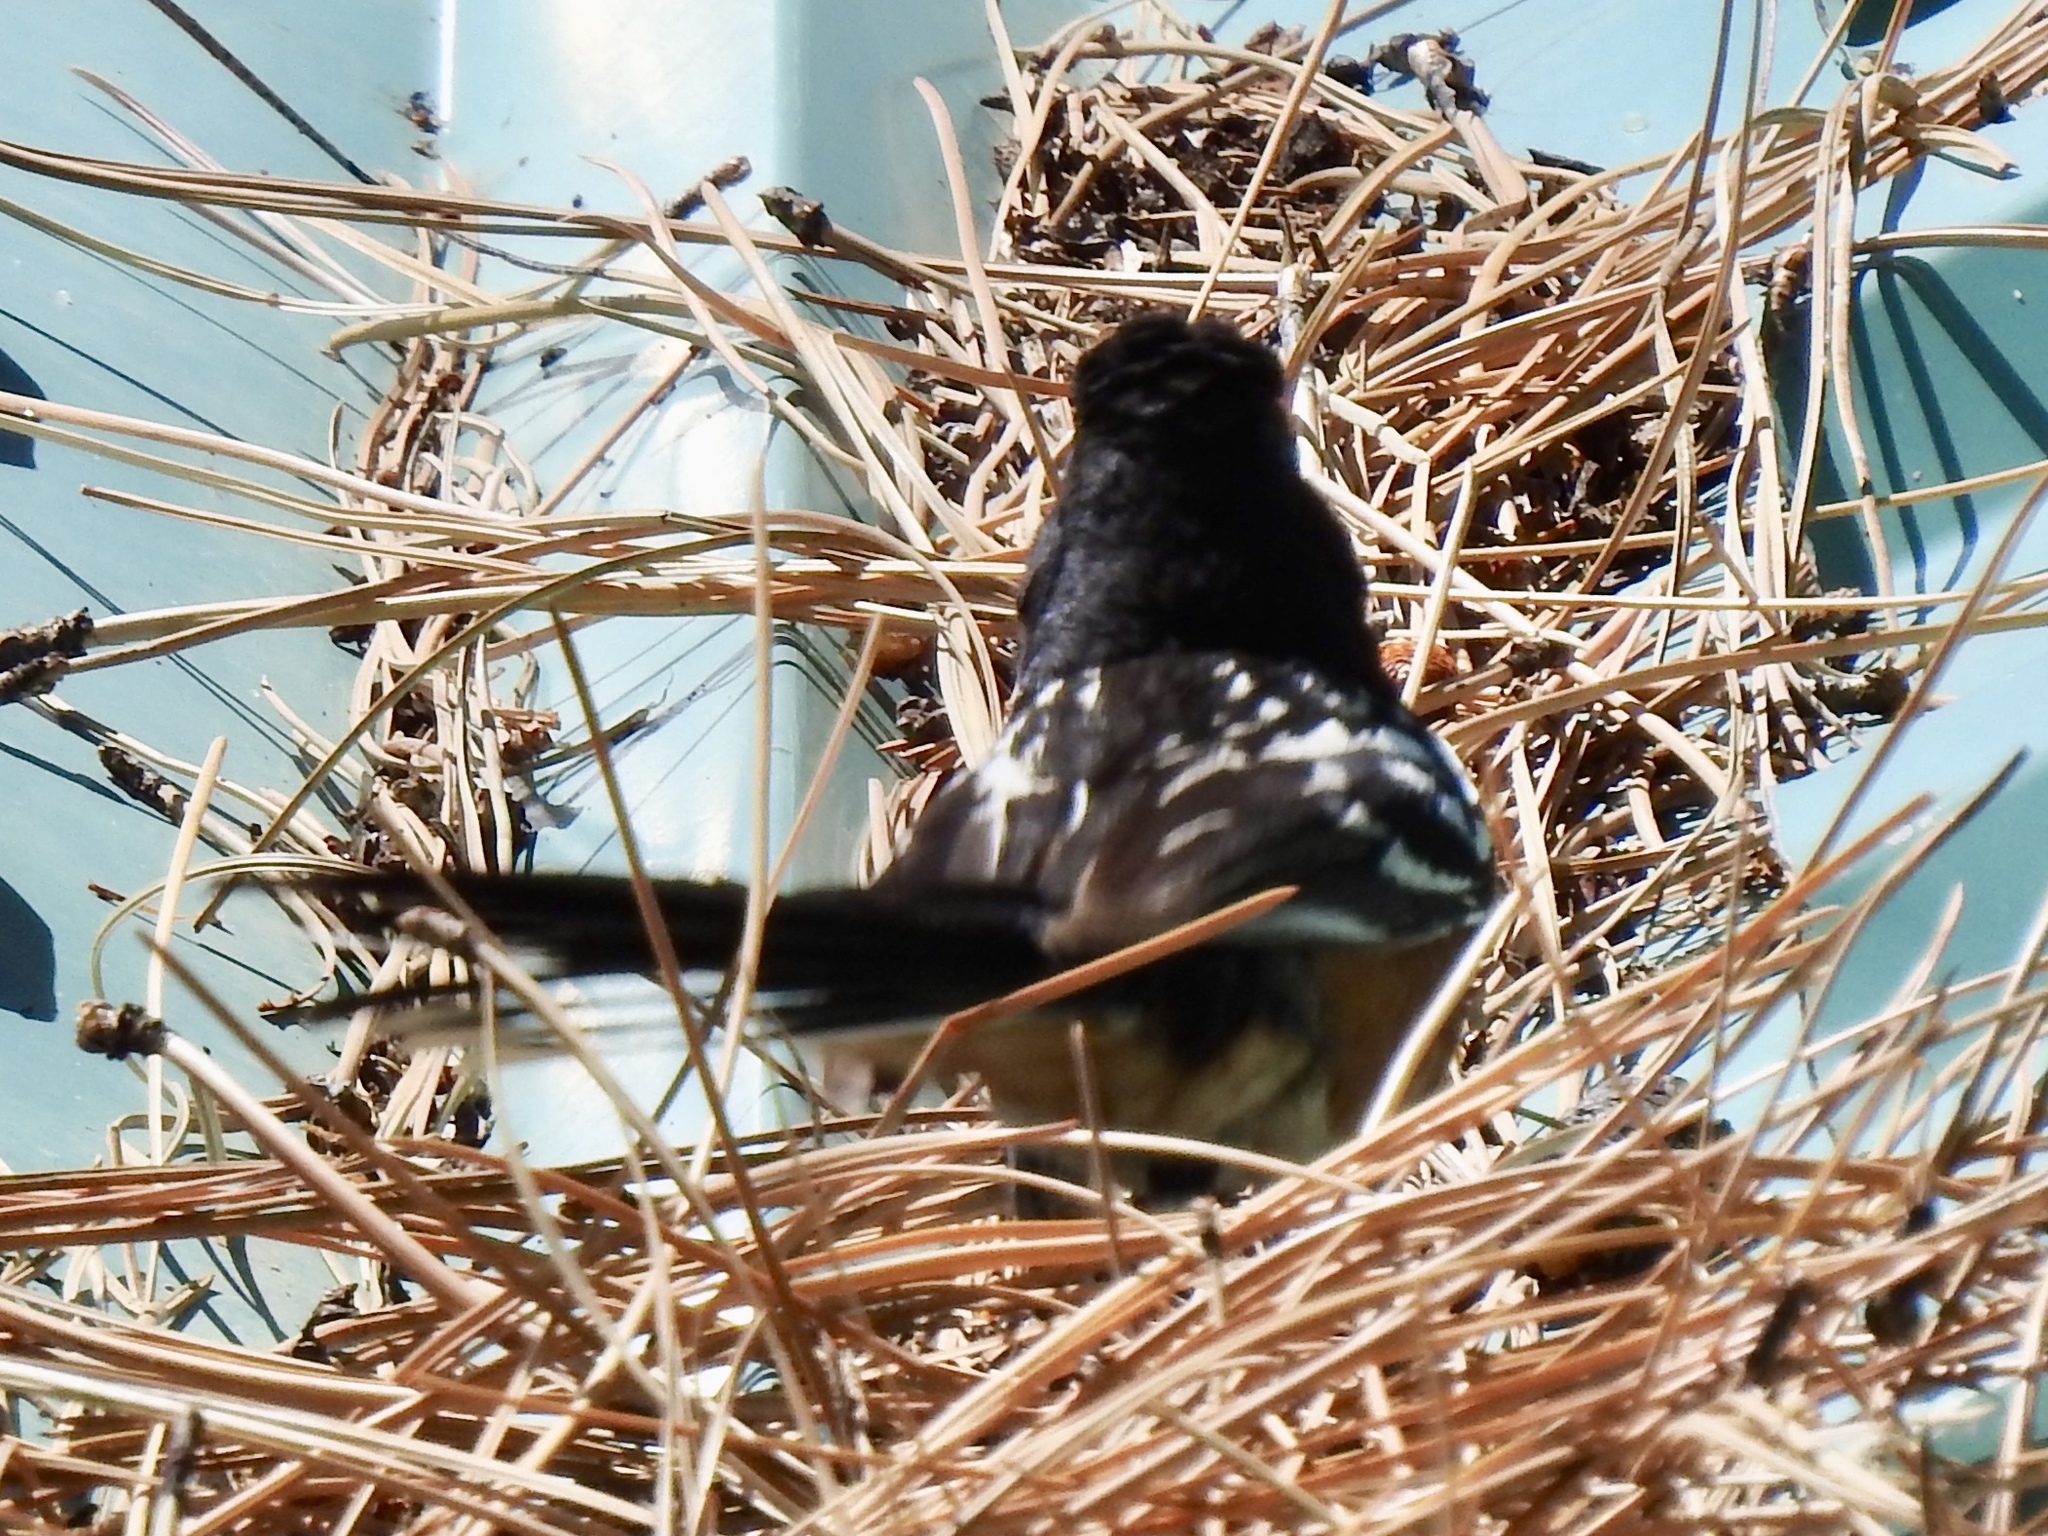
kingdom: Animalia
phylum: Chordata
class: Aves
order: Passeriformes
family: Passerellidae
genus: Pipilo
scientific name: Pipilo maculatus
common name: Spotted towhee
